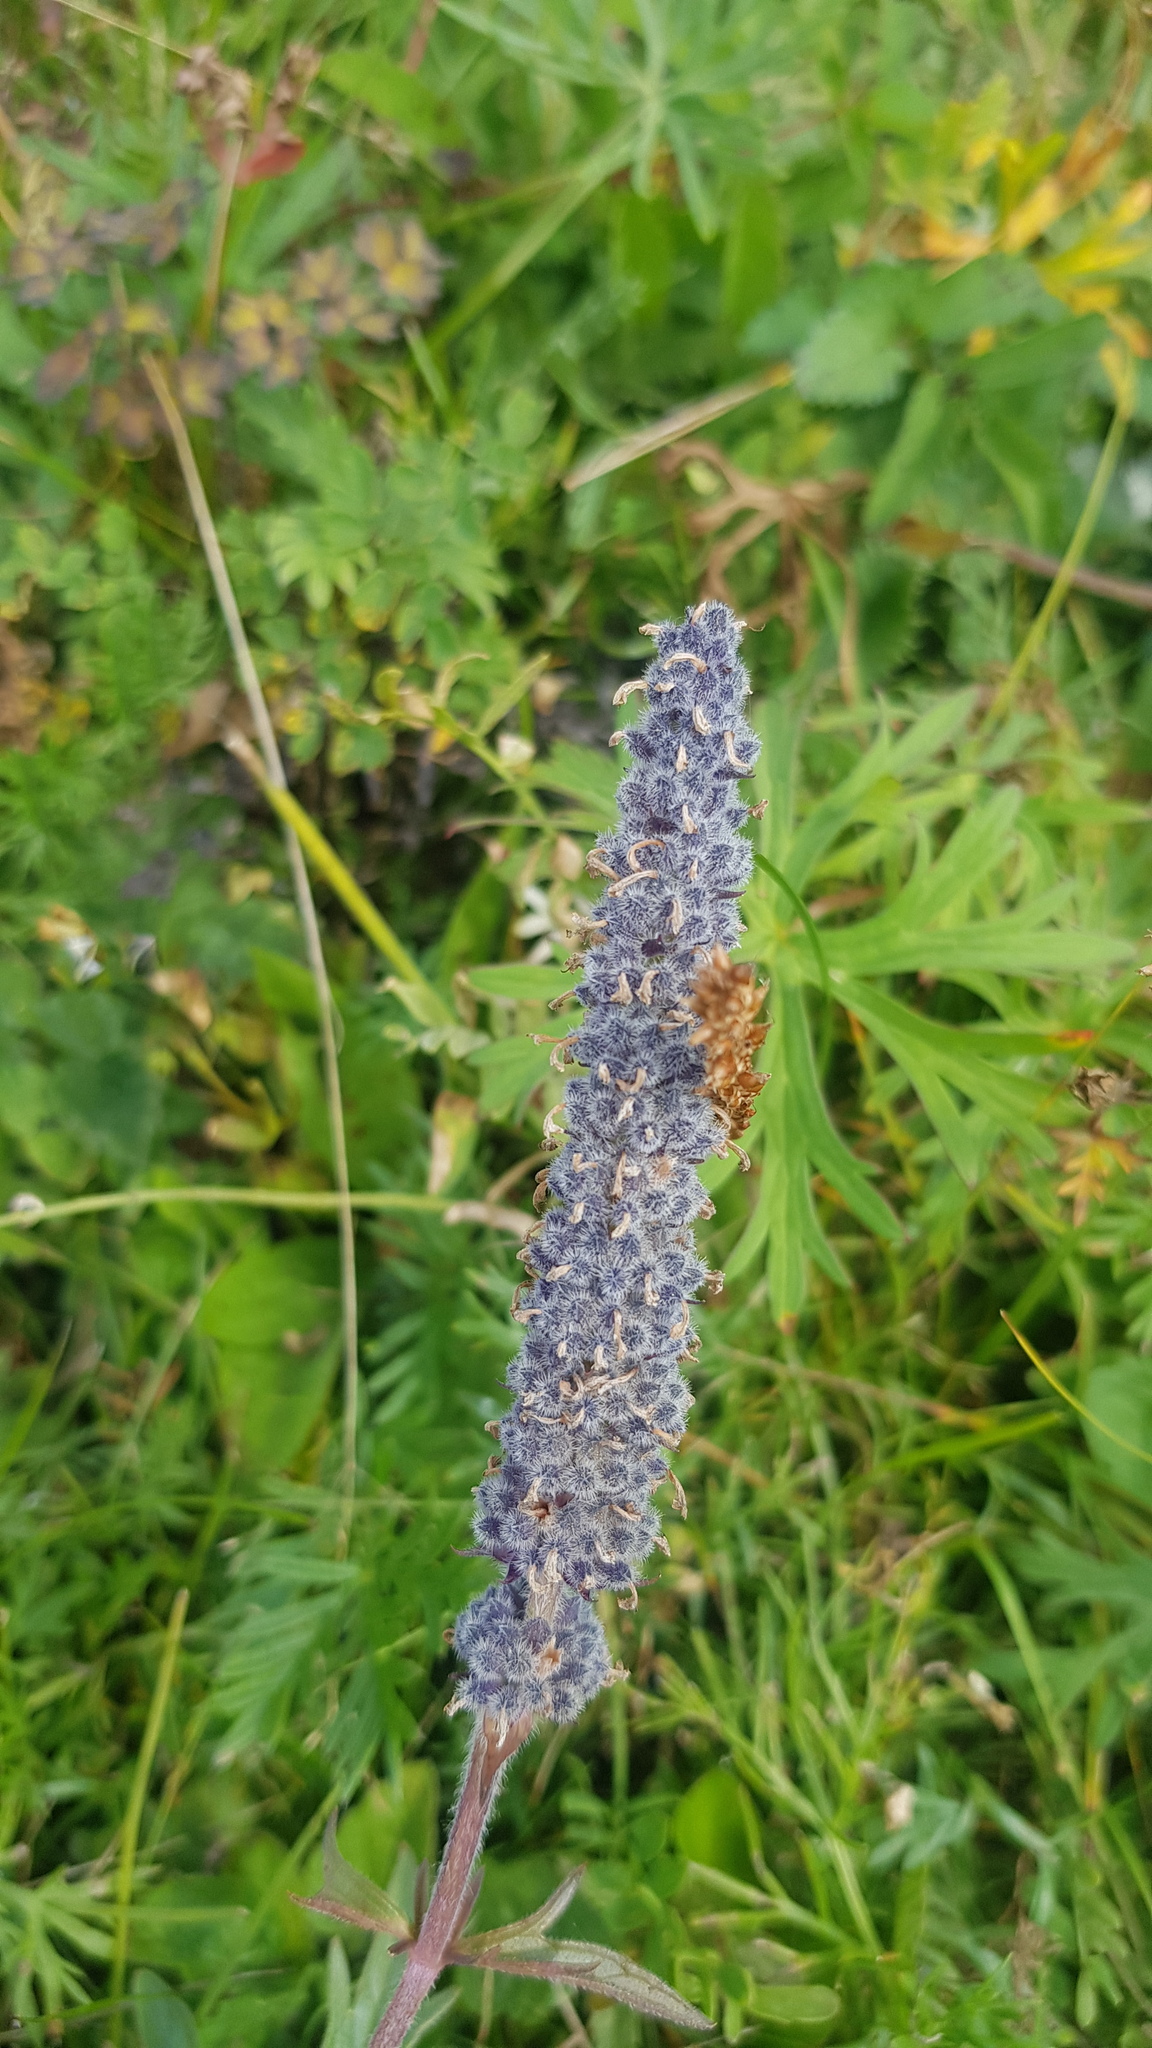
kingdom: Plantae
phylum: Tracheophyta
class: Magnoliopsida
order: Lamiales
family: Lamiaceae
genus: Nepeta
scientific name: Nepeta multifida
